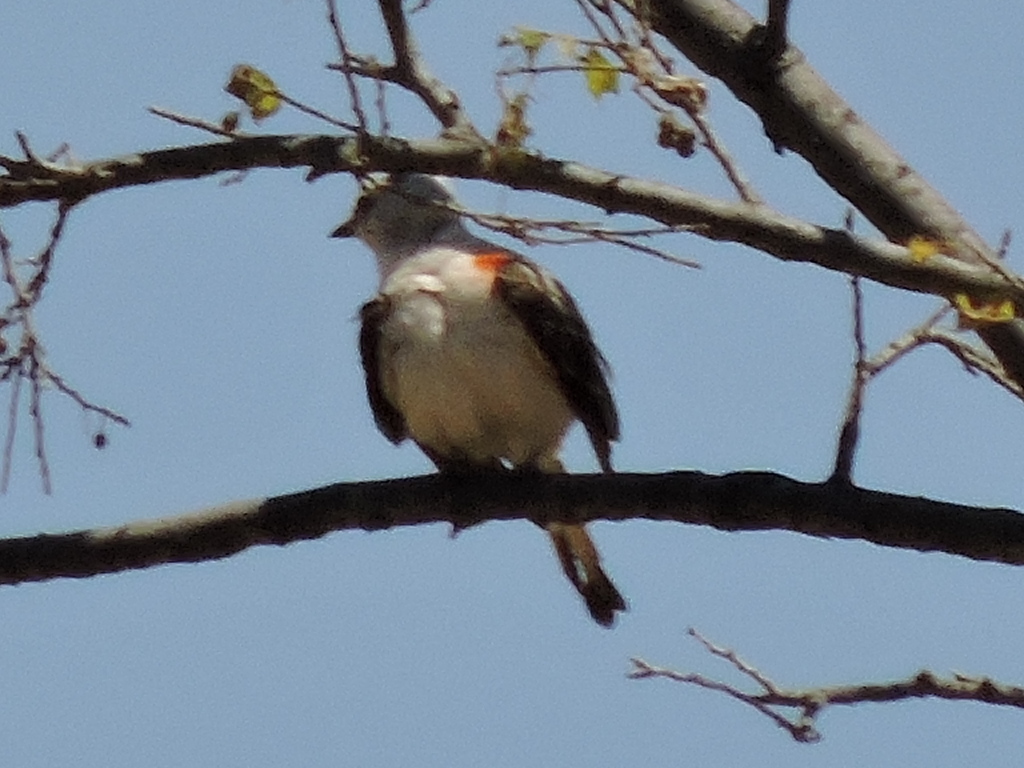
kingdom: Animalia
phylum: Chordata
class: Aves
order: Passeriformes
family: Tyrannidae
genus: Tyrannus
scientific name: Tyrannus forficatus
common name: Scissor-tailed flycatcher
